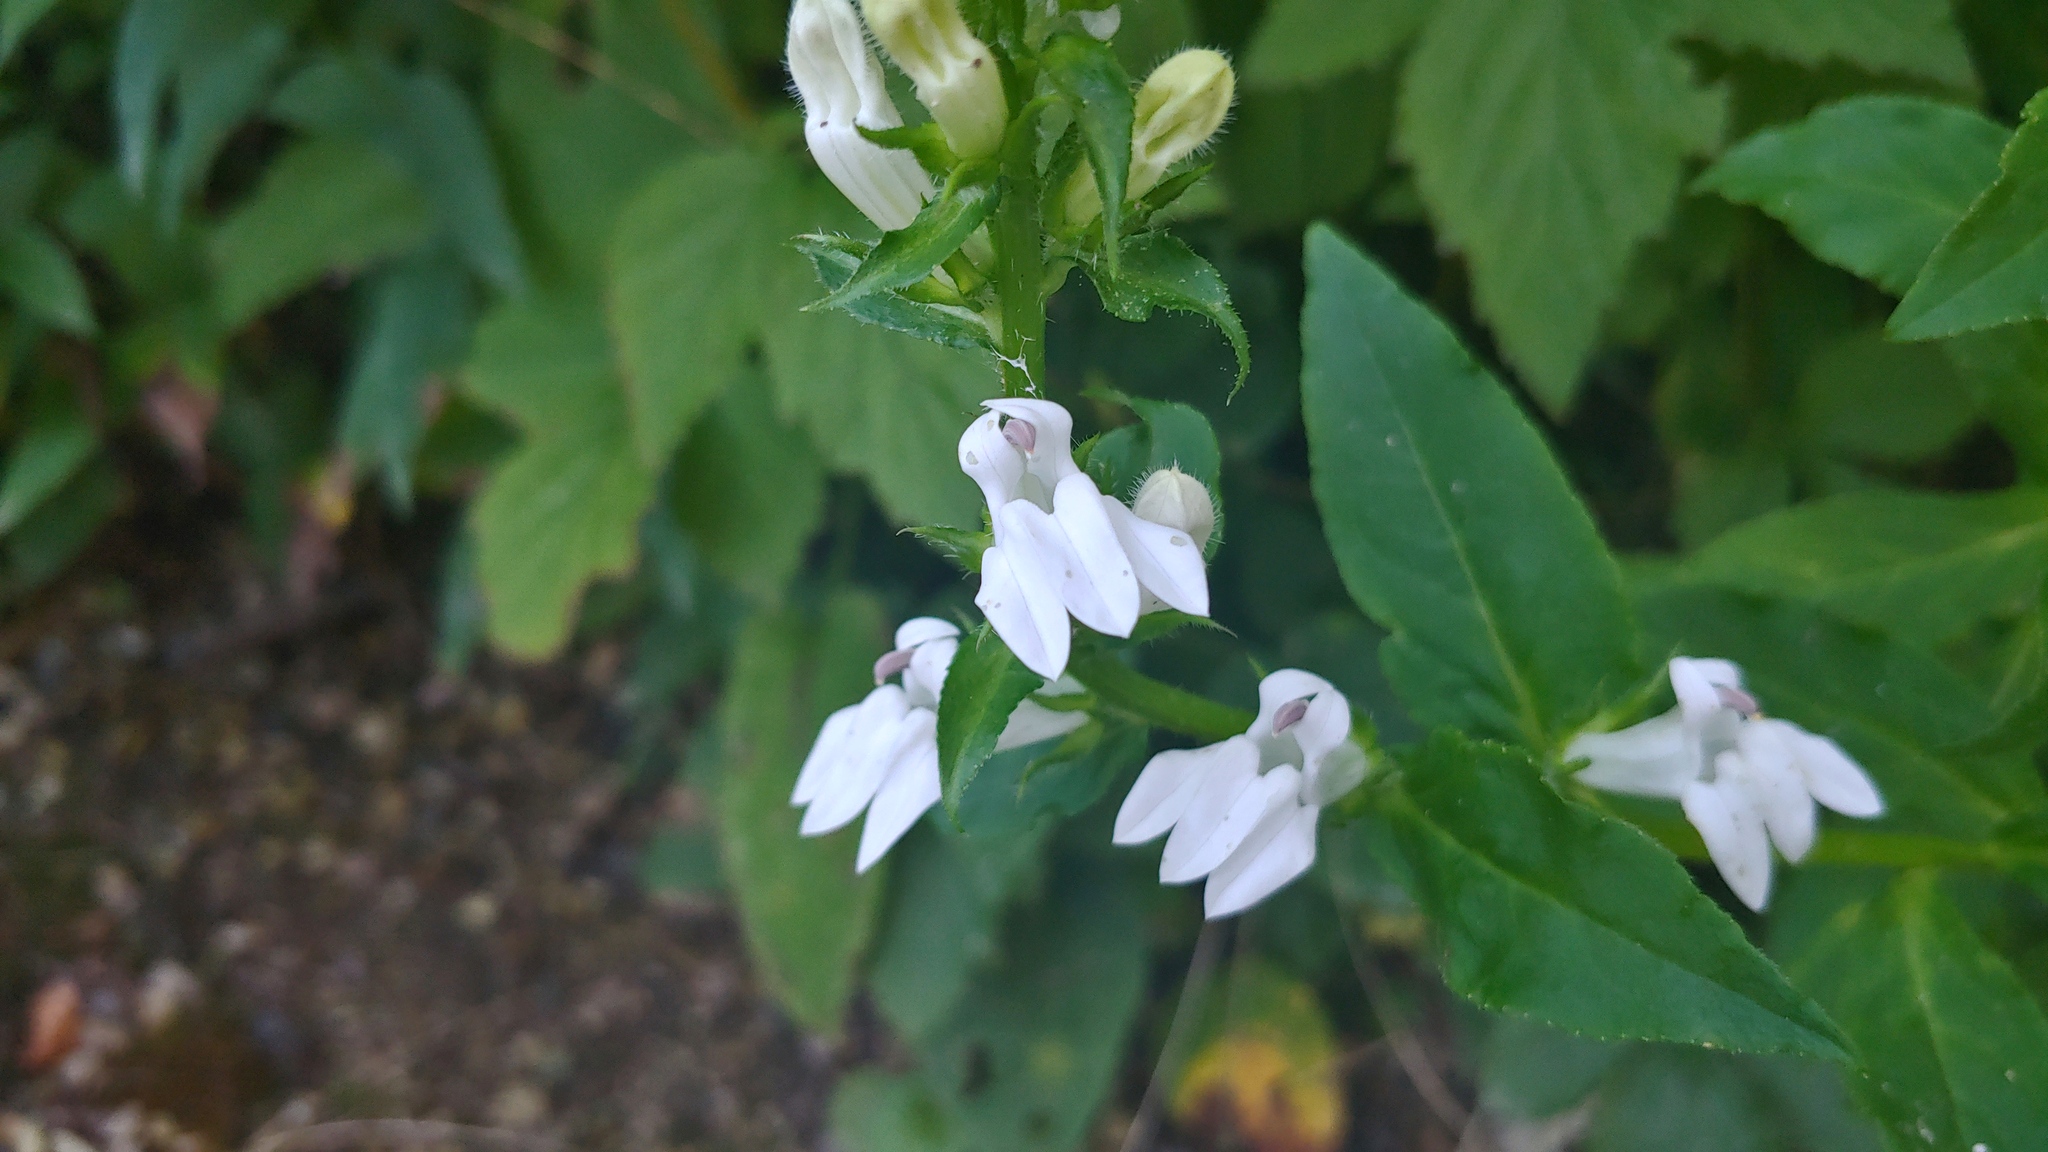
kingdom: Plantae
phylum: Tracheophyta
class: Magnoliopsida
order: Asterales
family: Campanulaceae
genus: Lobelia
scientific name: Lobelia siphilitica
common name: Great lobelia
